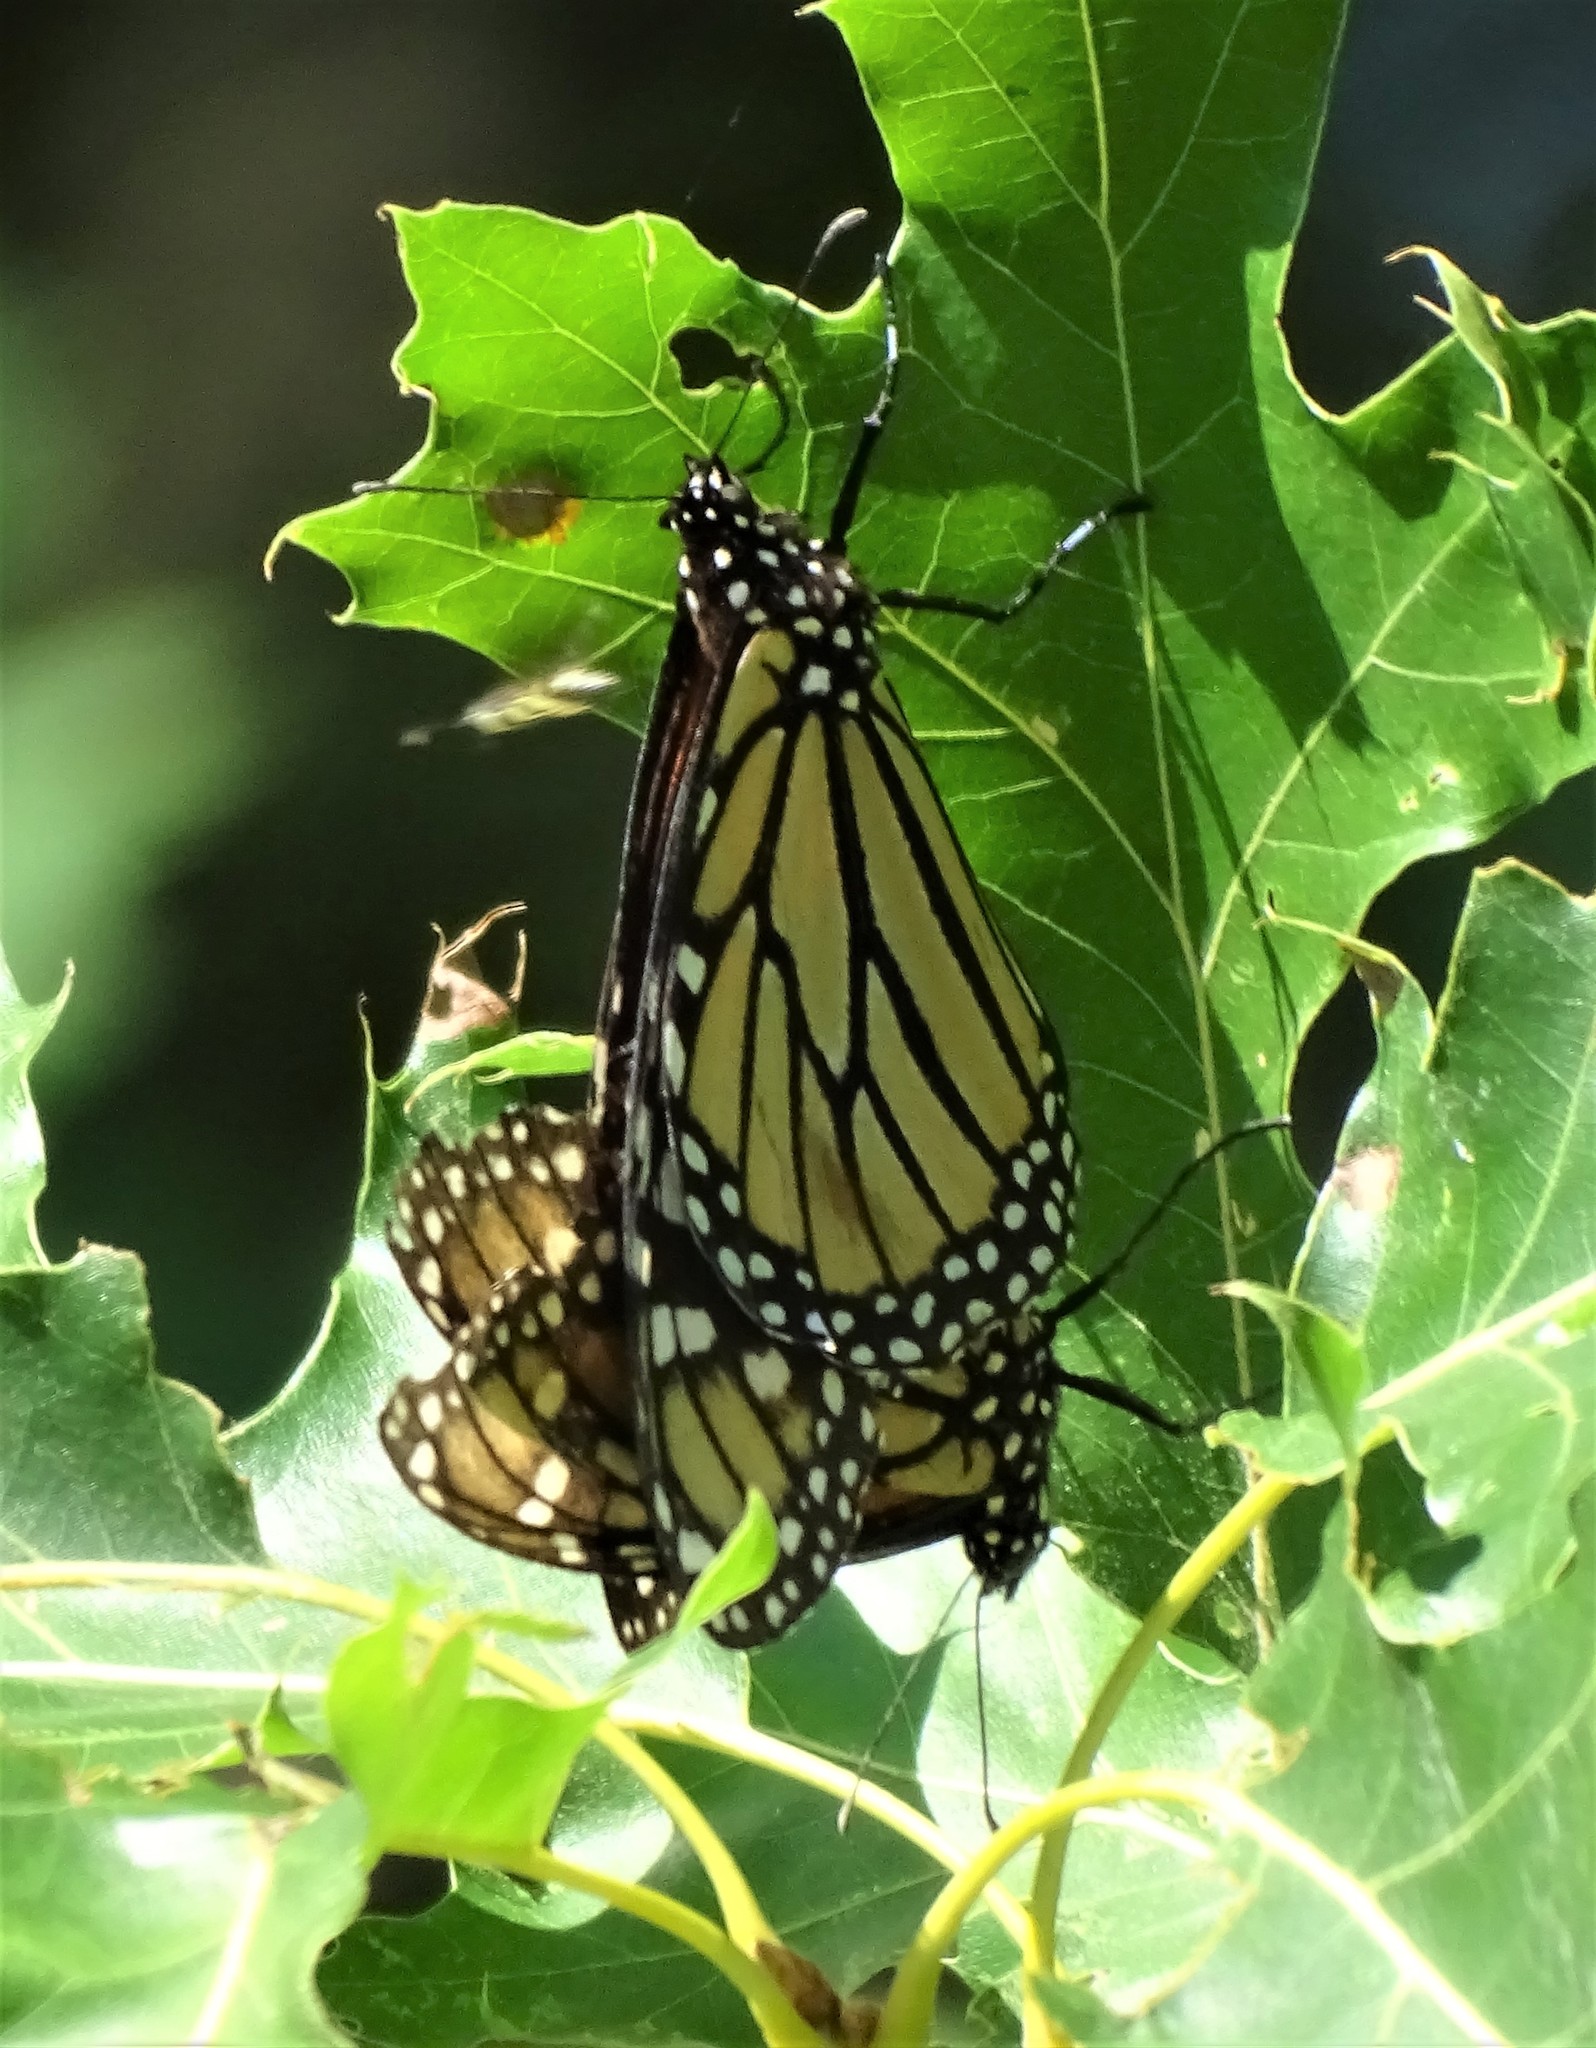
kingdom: Animalia
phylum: Arthropoda
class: Insecta
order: Lepidoptera
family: Nymphalidae
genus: Danaus
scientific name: Danaus plexippus
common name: Monarch
